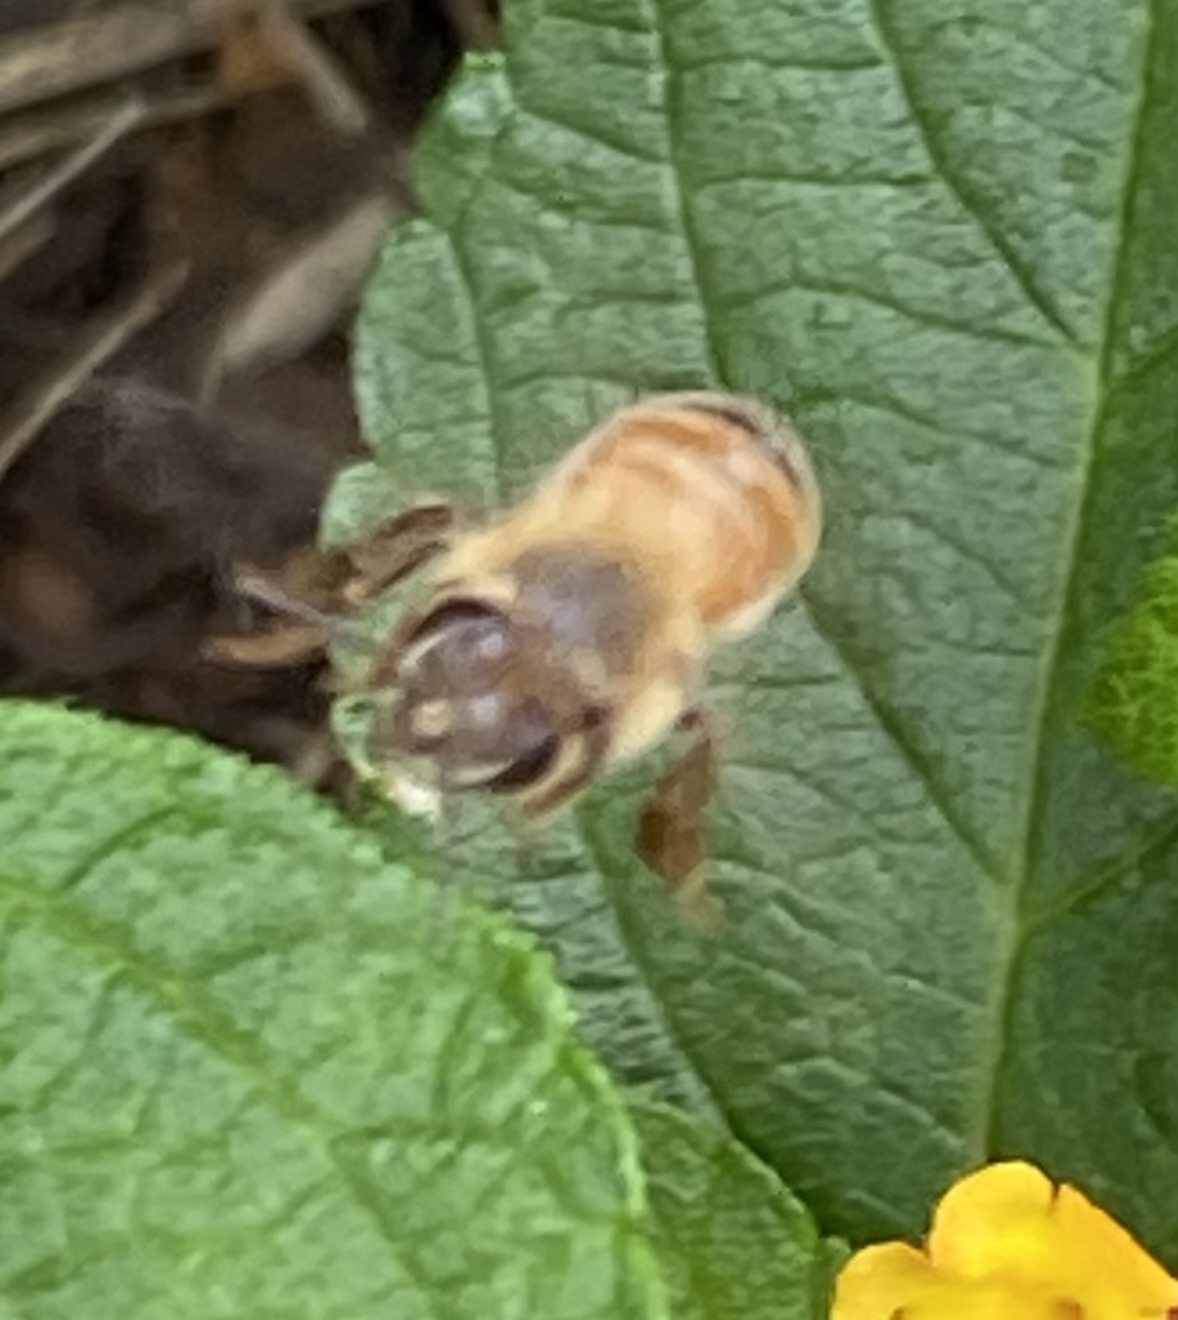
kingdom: Animalia
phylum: Arthropoda
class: Insecta
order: Hymenoptera
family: Apidae
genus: Apis
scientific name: Apis mellifera
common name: Honey bee
